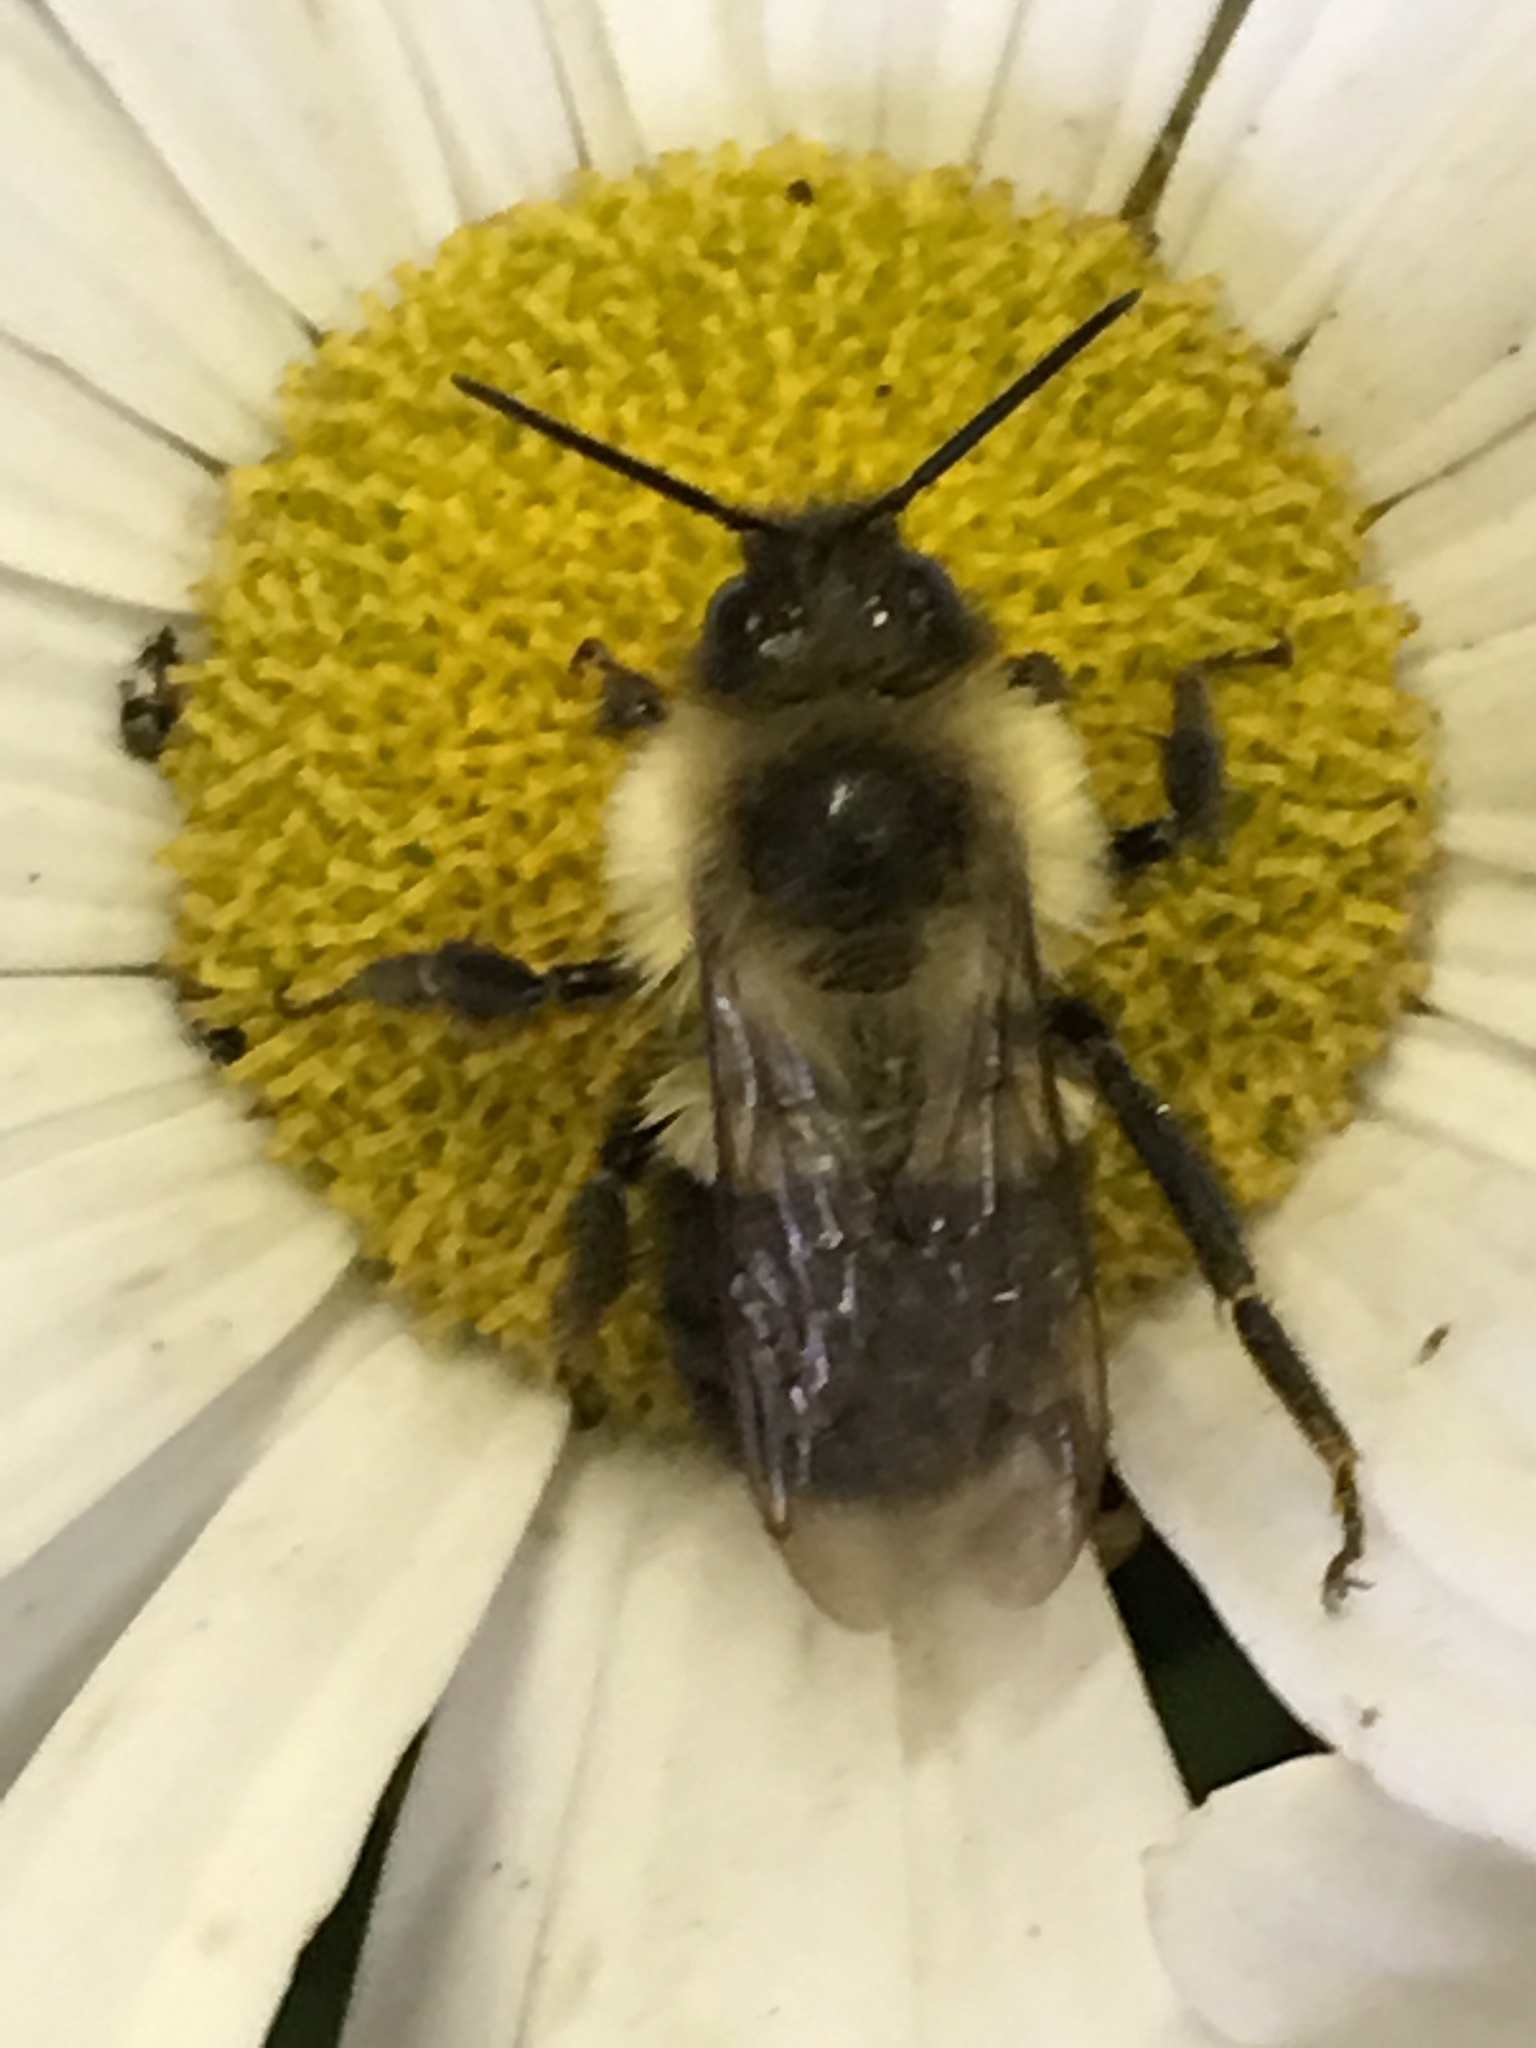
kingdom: Animalia
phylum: Arthropoda
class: Insecta
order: Hymenoptera
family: Apidae
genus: Bombus
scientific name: Bombus impatiens
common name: Common eastern bumble bee
